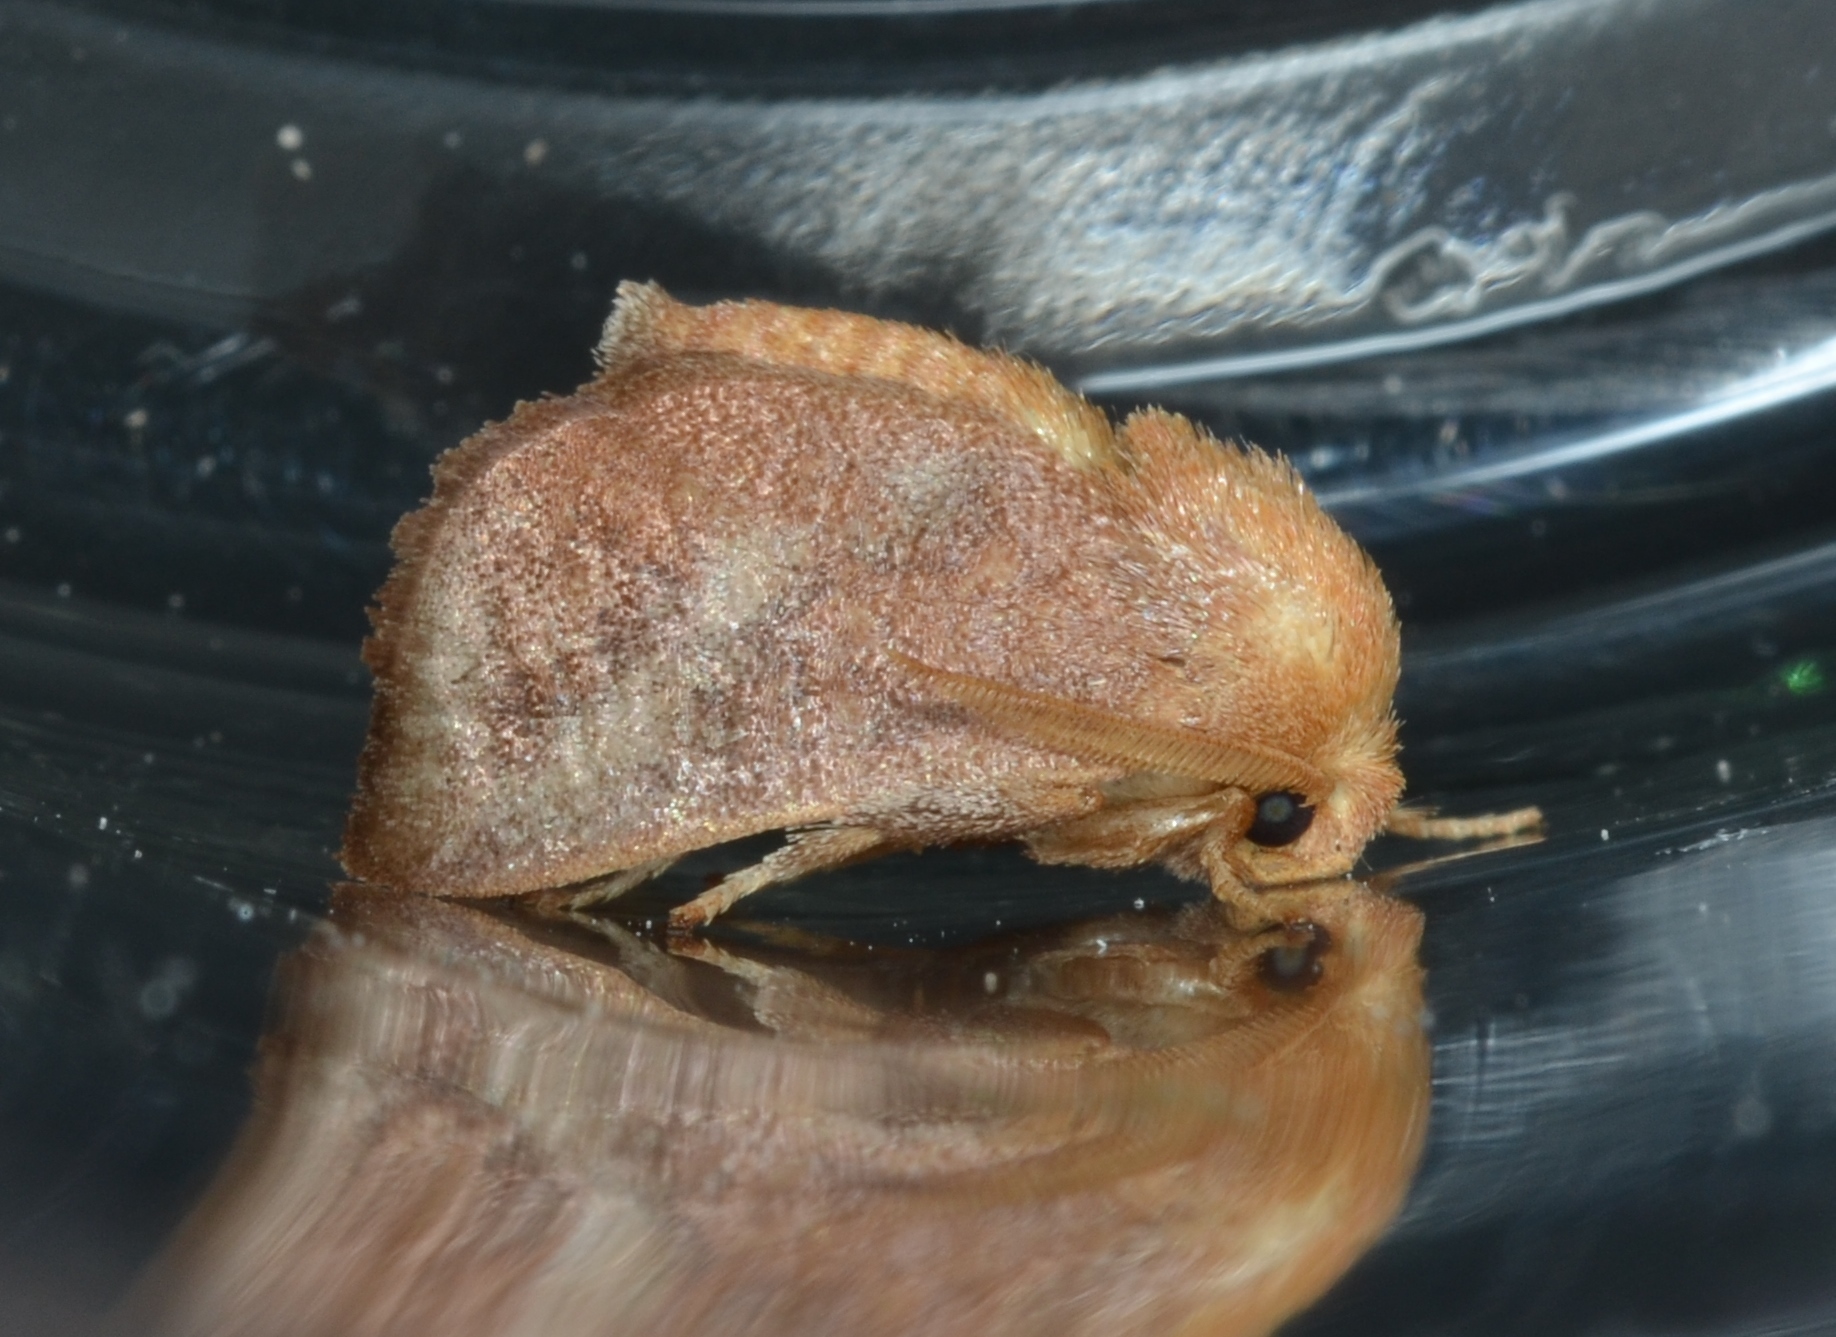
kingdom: Animalia
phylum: Arthropoda
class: Insecta
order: Lepidoptera
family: Limacodidae
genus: Isa
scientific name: Isa textula
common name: Crowned slug moth
